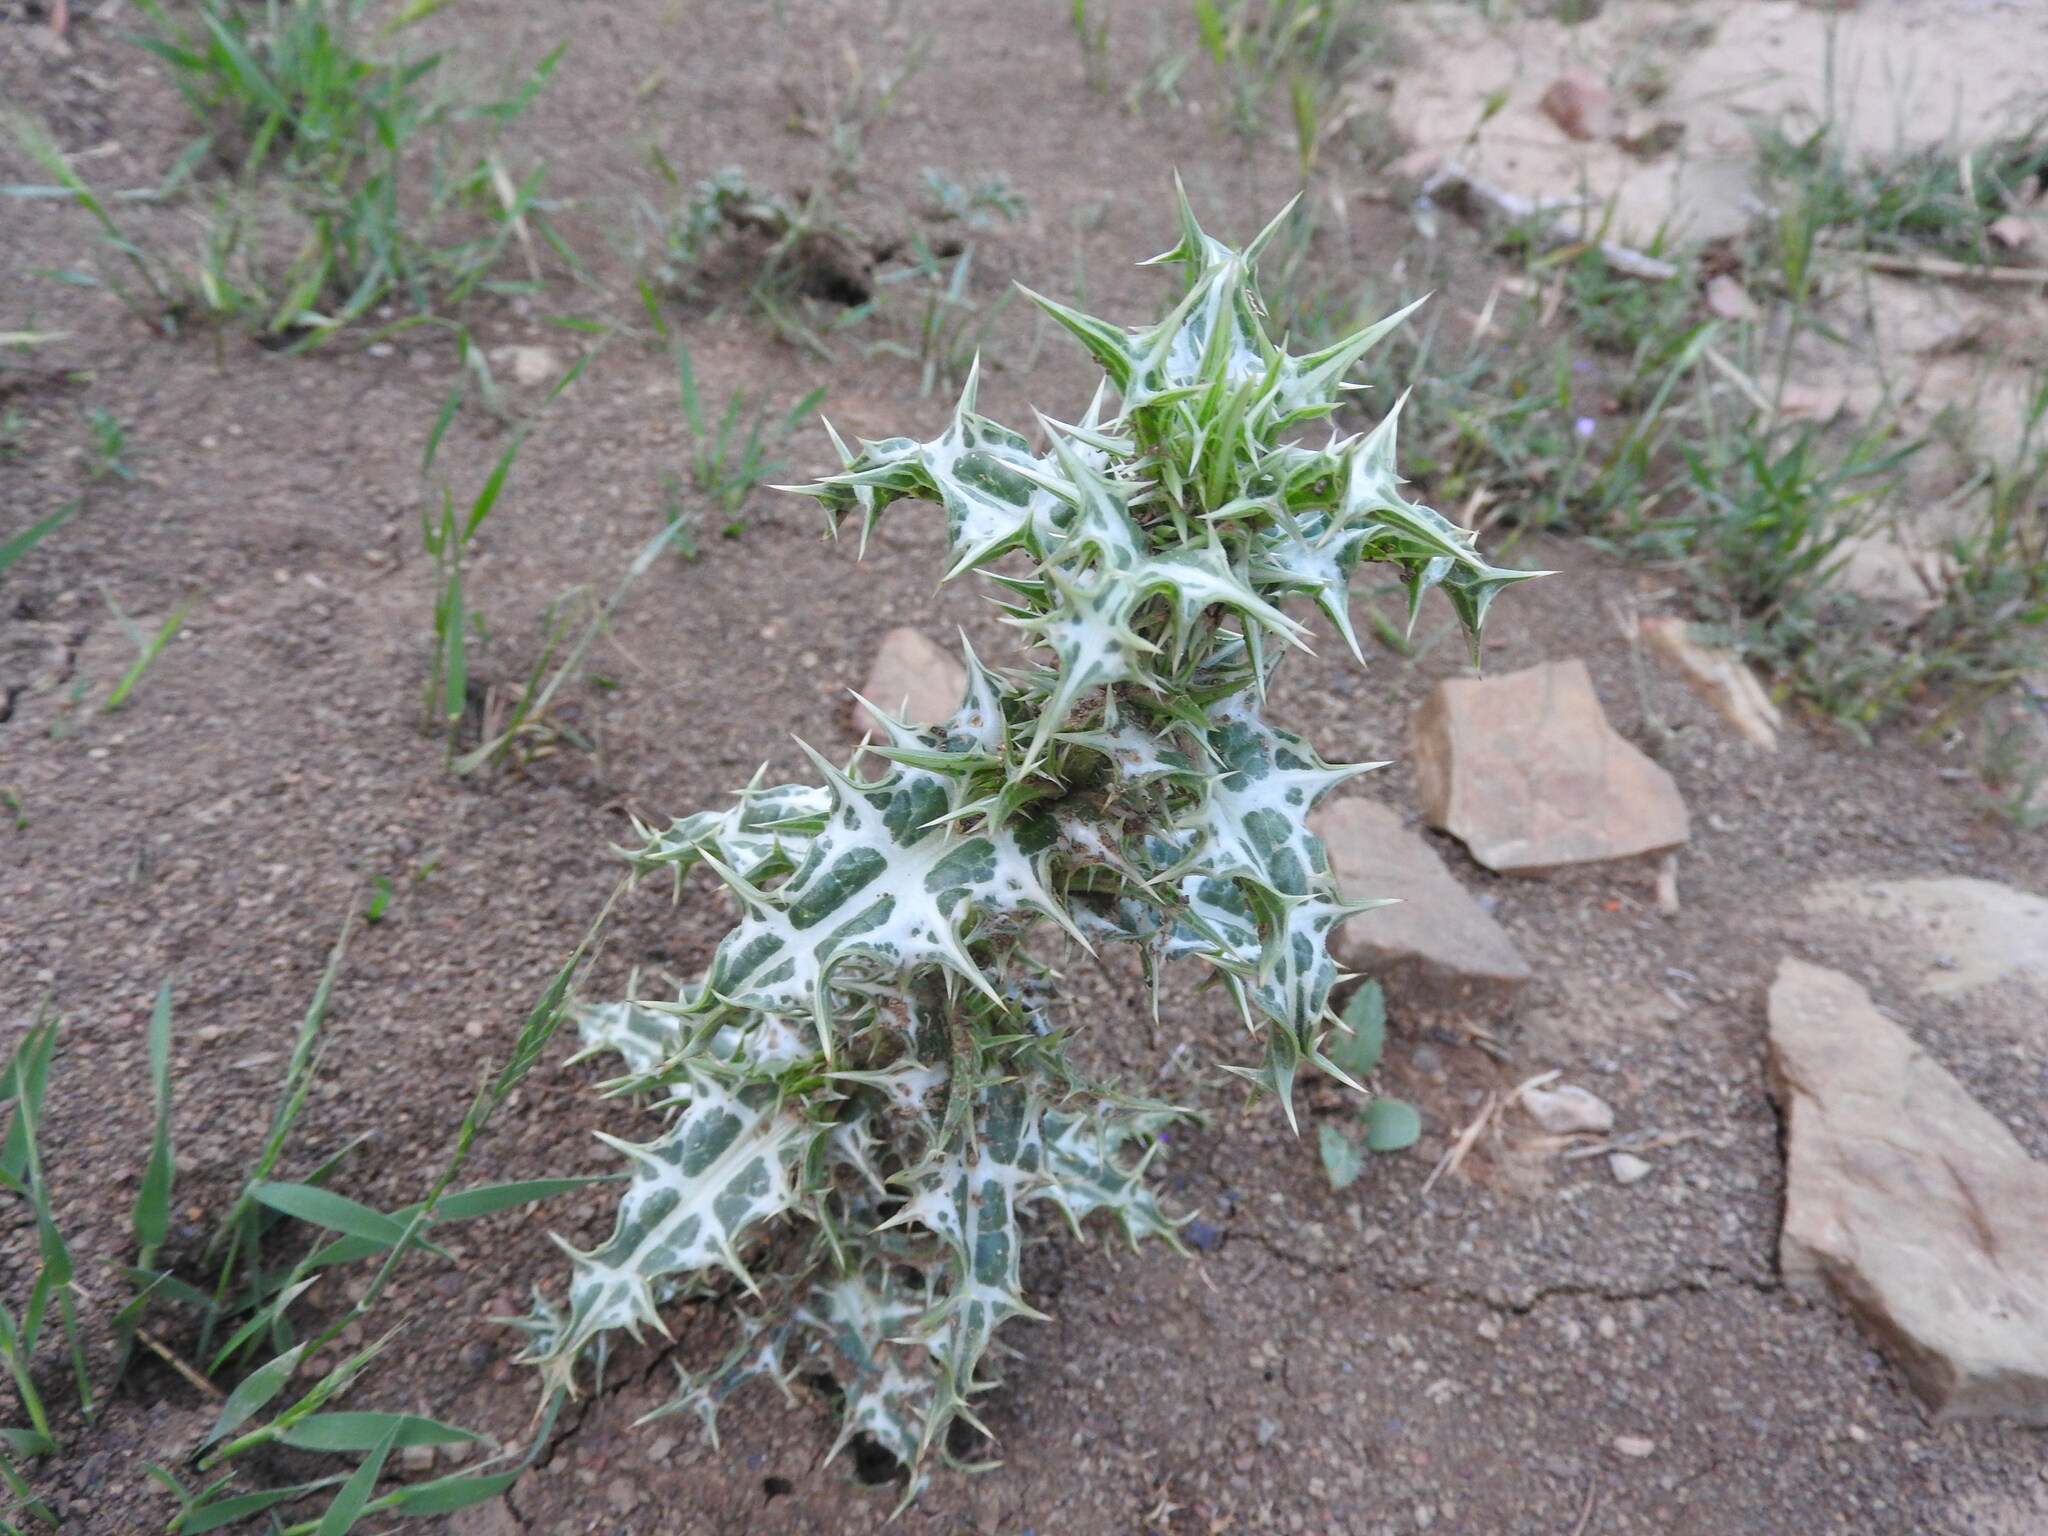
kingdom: Plantae
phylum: Tracheophyta
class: Magnoliopsida
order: Asterales
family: Asteraceae
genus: Scolymus
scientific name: Scolymus maculatus
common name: Spotted thistle
